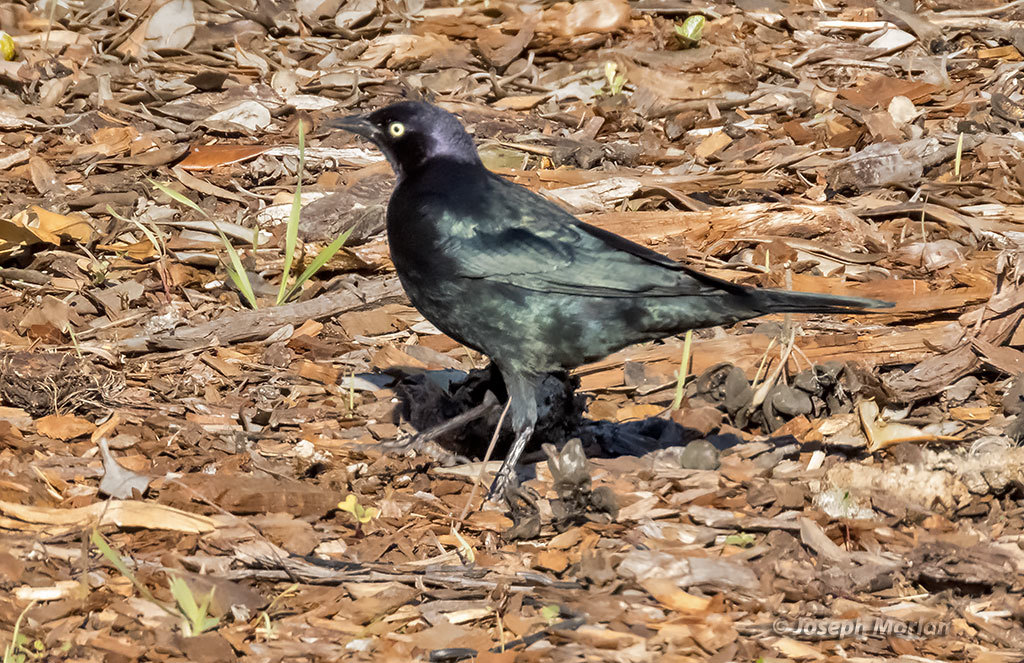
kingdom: Animalia
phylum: Chordata
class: Aves
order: Passeriformes
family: Icteridae
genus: Euphagus
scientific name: Euphagus cyanocephalus
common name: Brewer's blackbird
